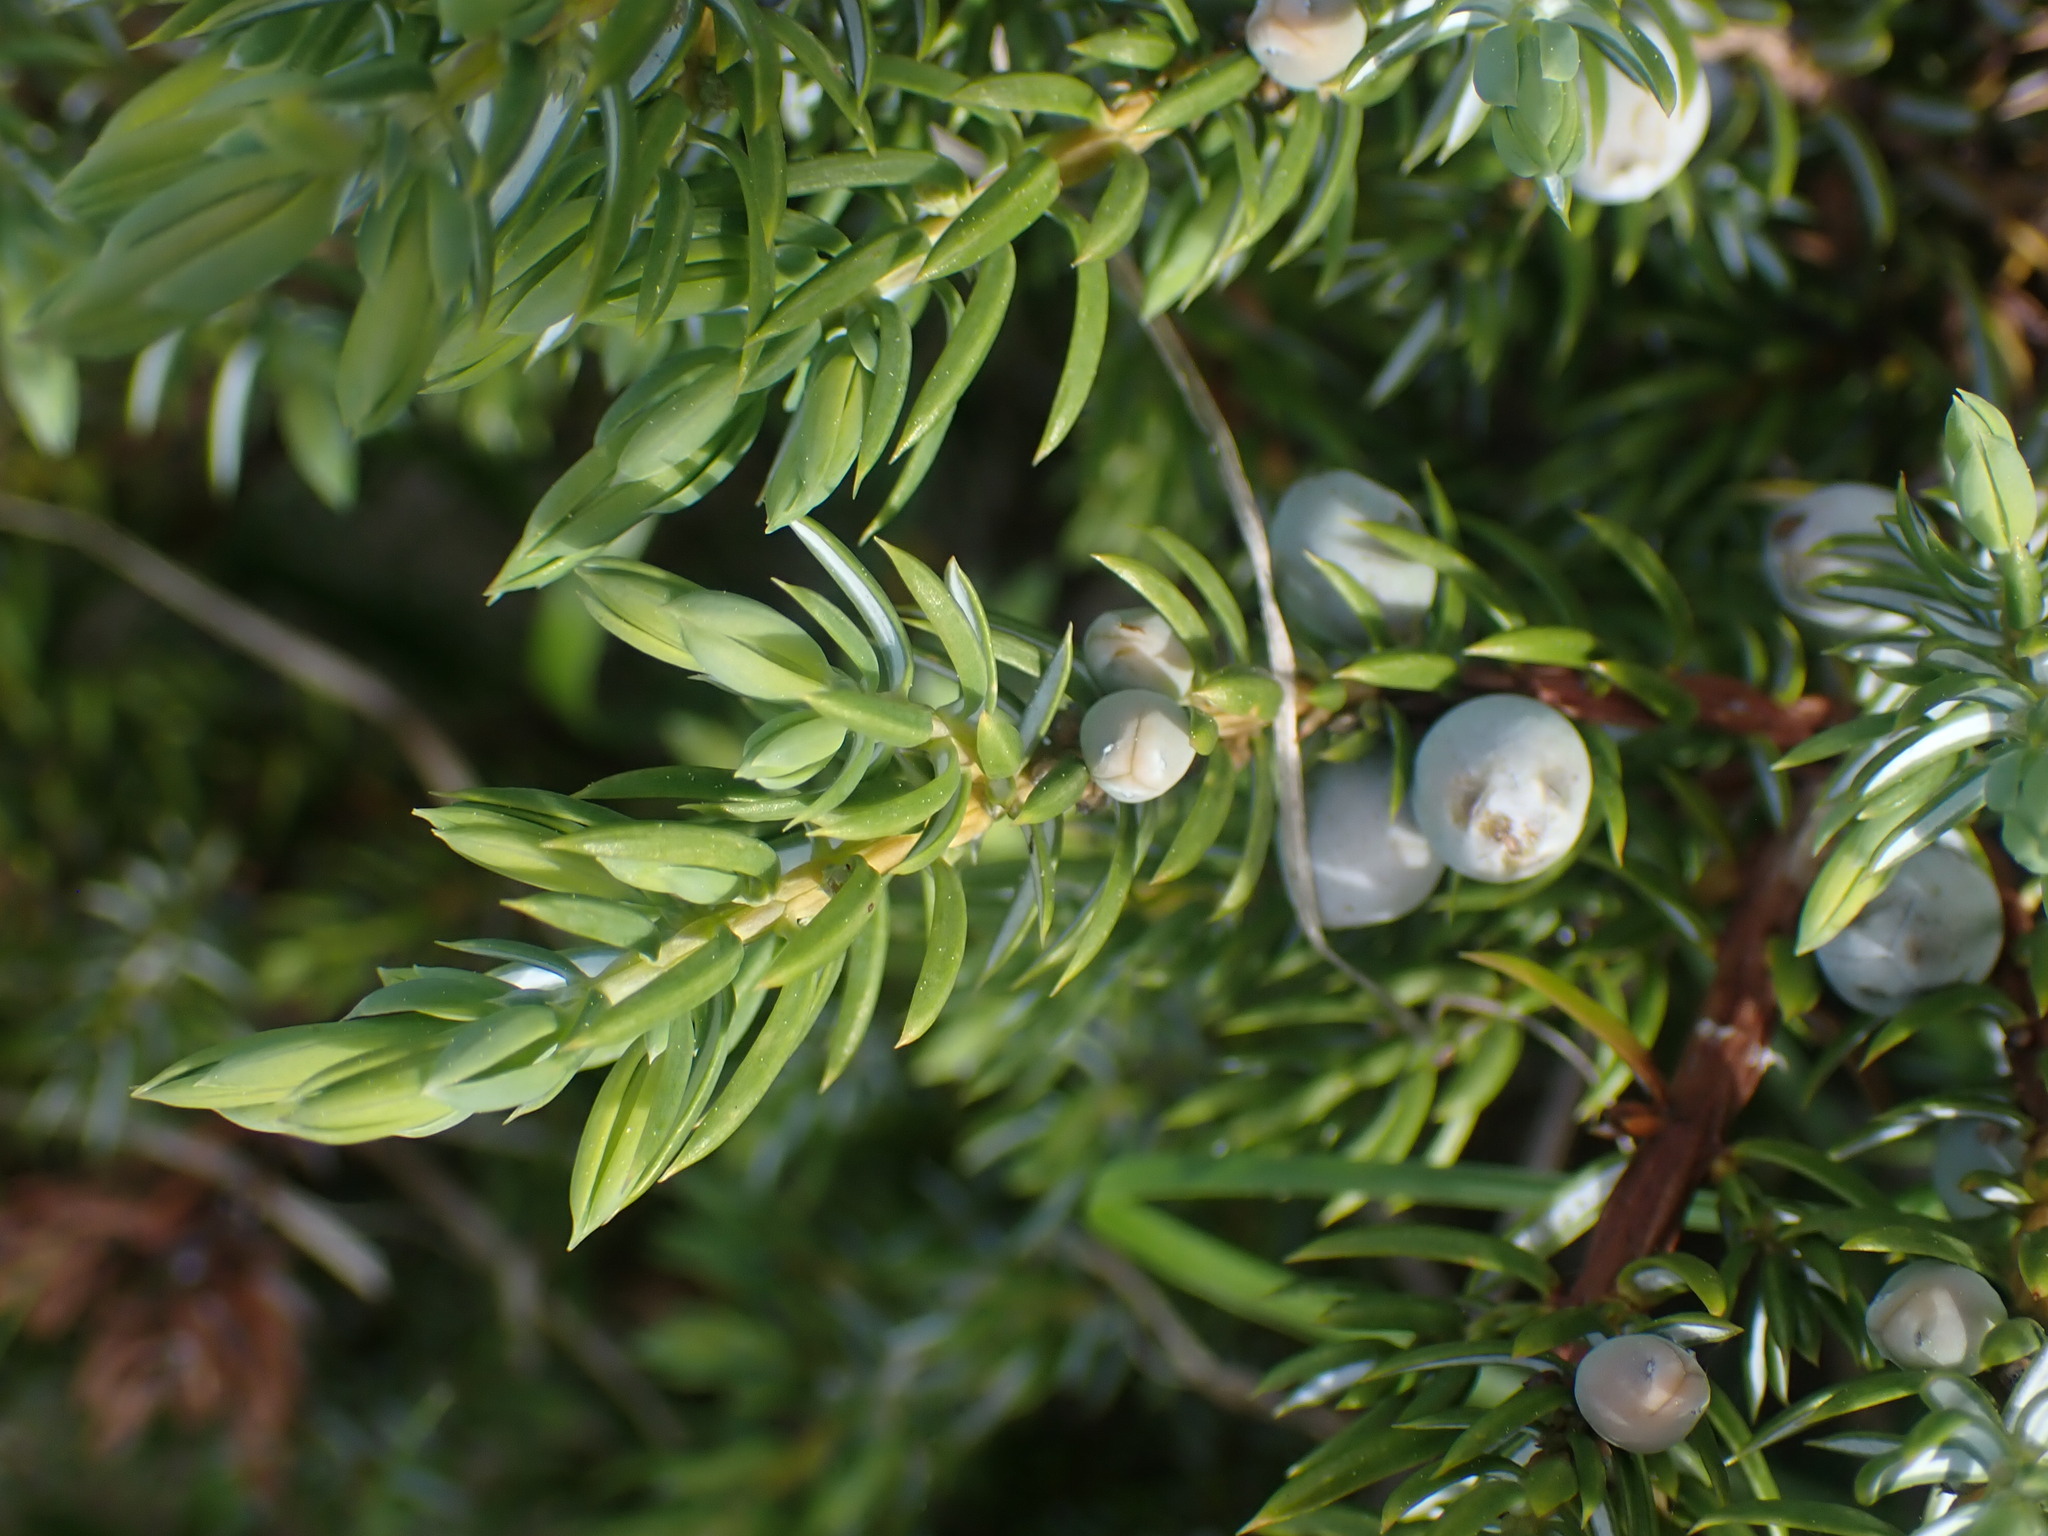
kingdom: Plantae
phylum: Tracheophyta
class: Pinopsida
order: Pinales
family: Cupressaceae
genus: Juniperus
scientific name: Juniperus communis
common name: Common juniper
